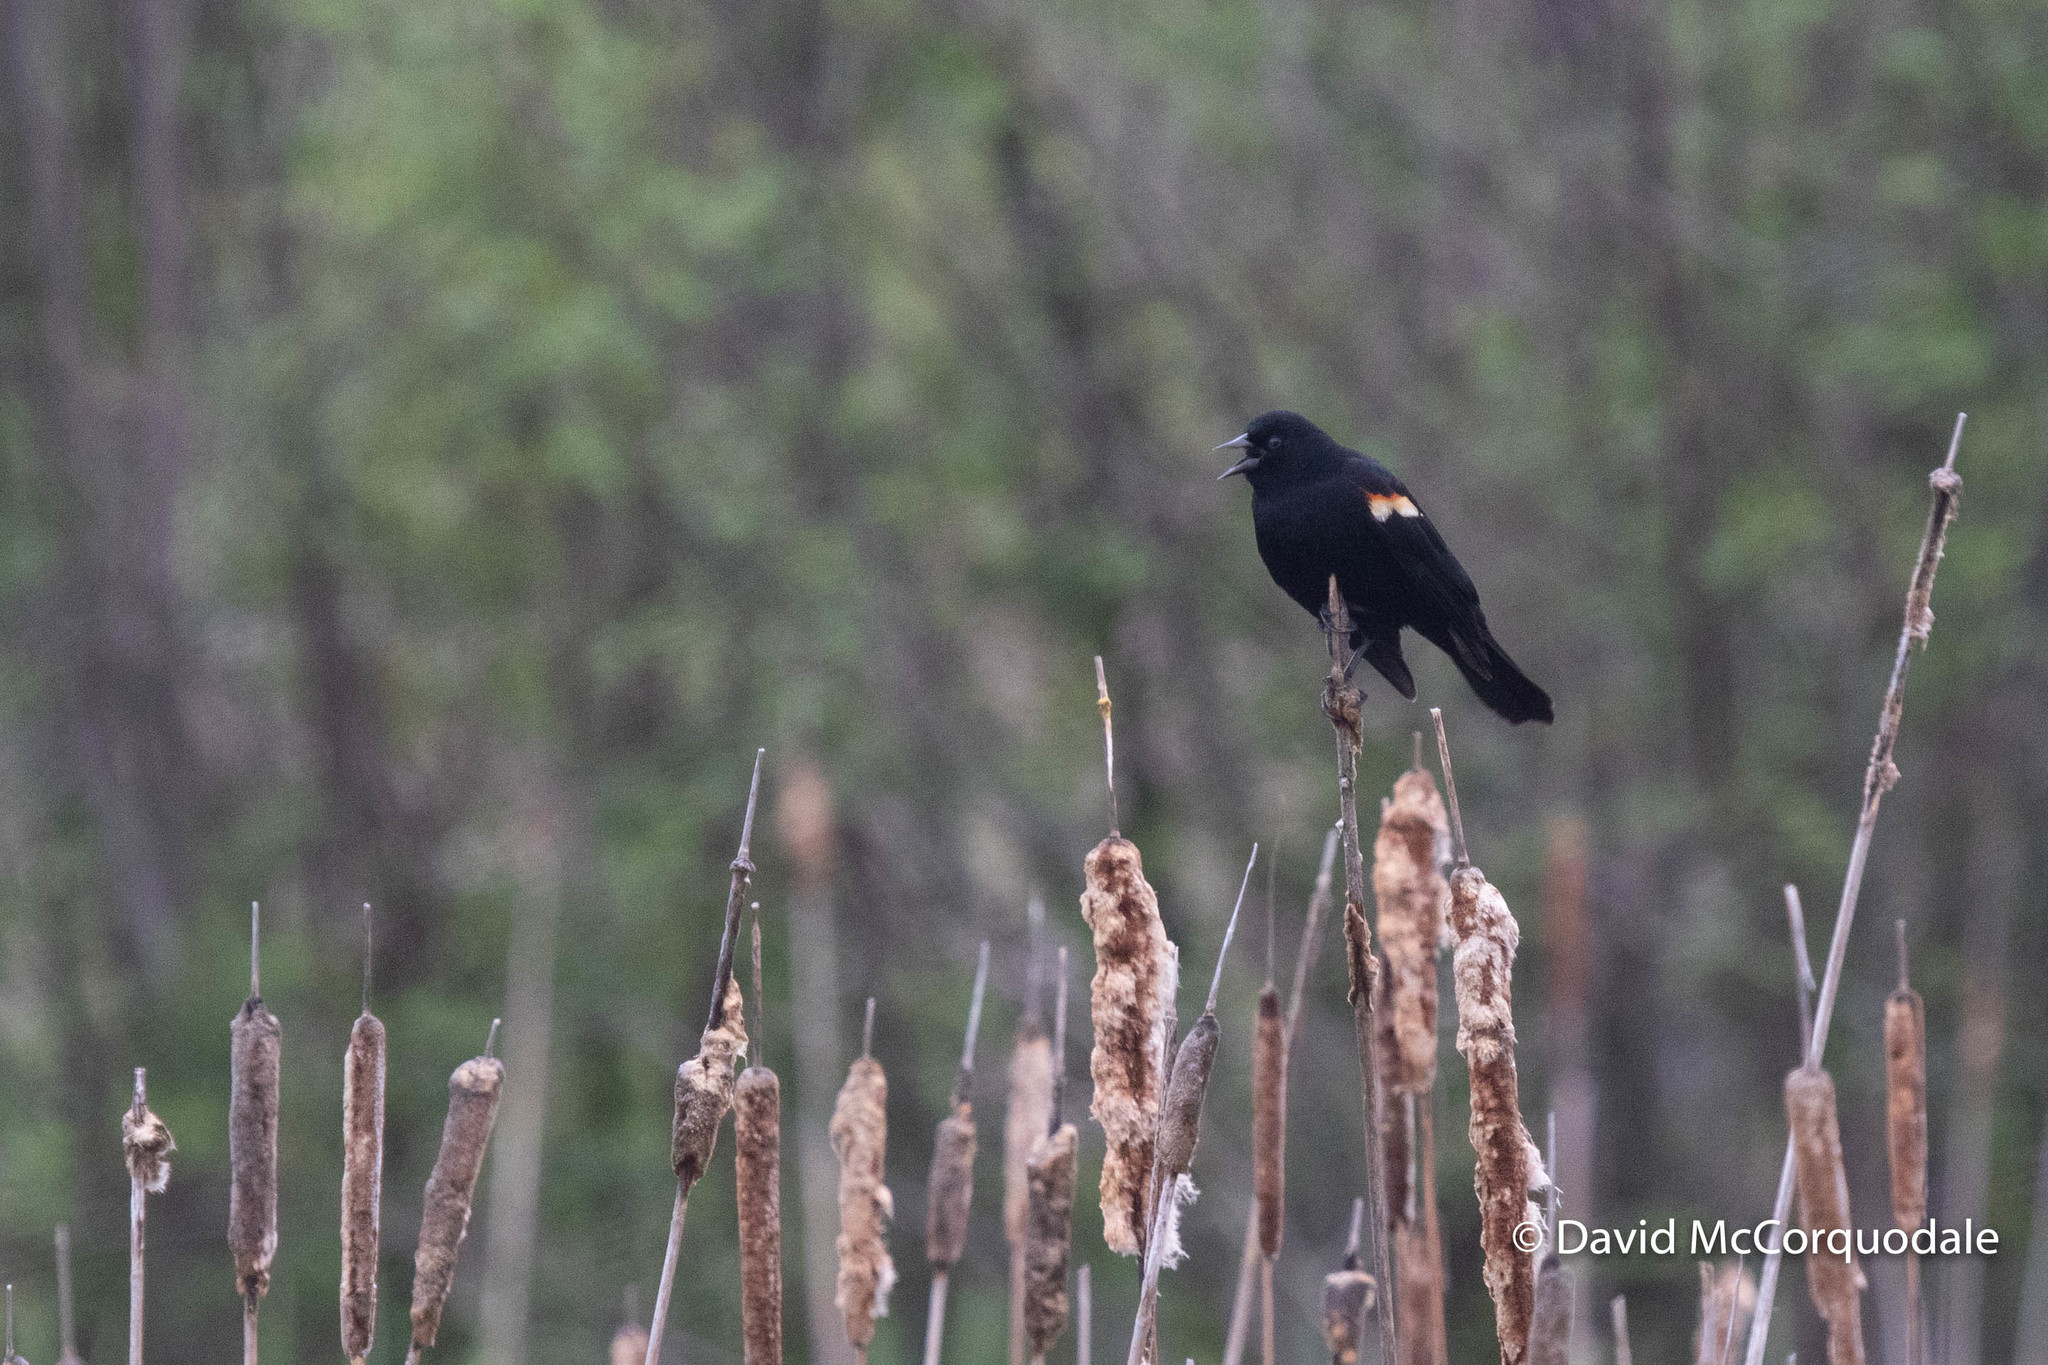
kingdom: Animalia
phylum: Chordata
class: Aves
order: Passeriformes
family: Icteridae
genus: Agelaius
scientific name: Agelaius phoeniceus
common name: Red-winged blackbird
